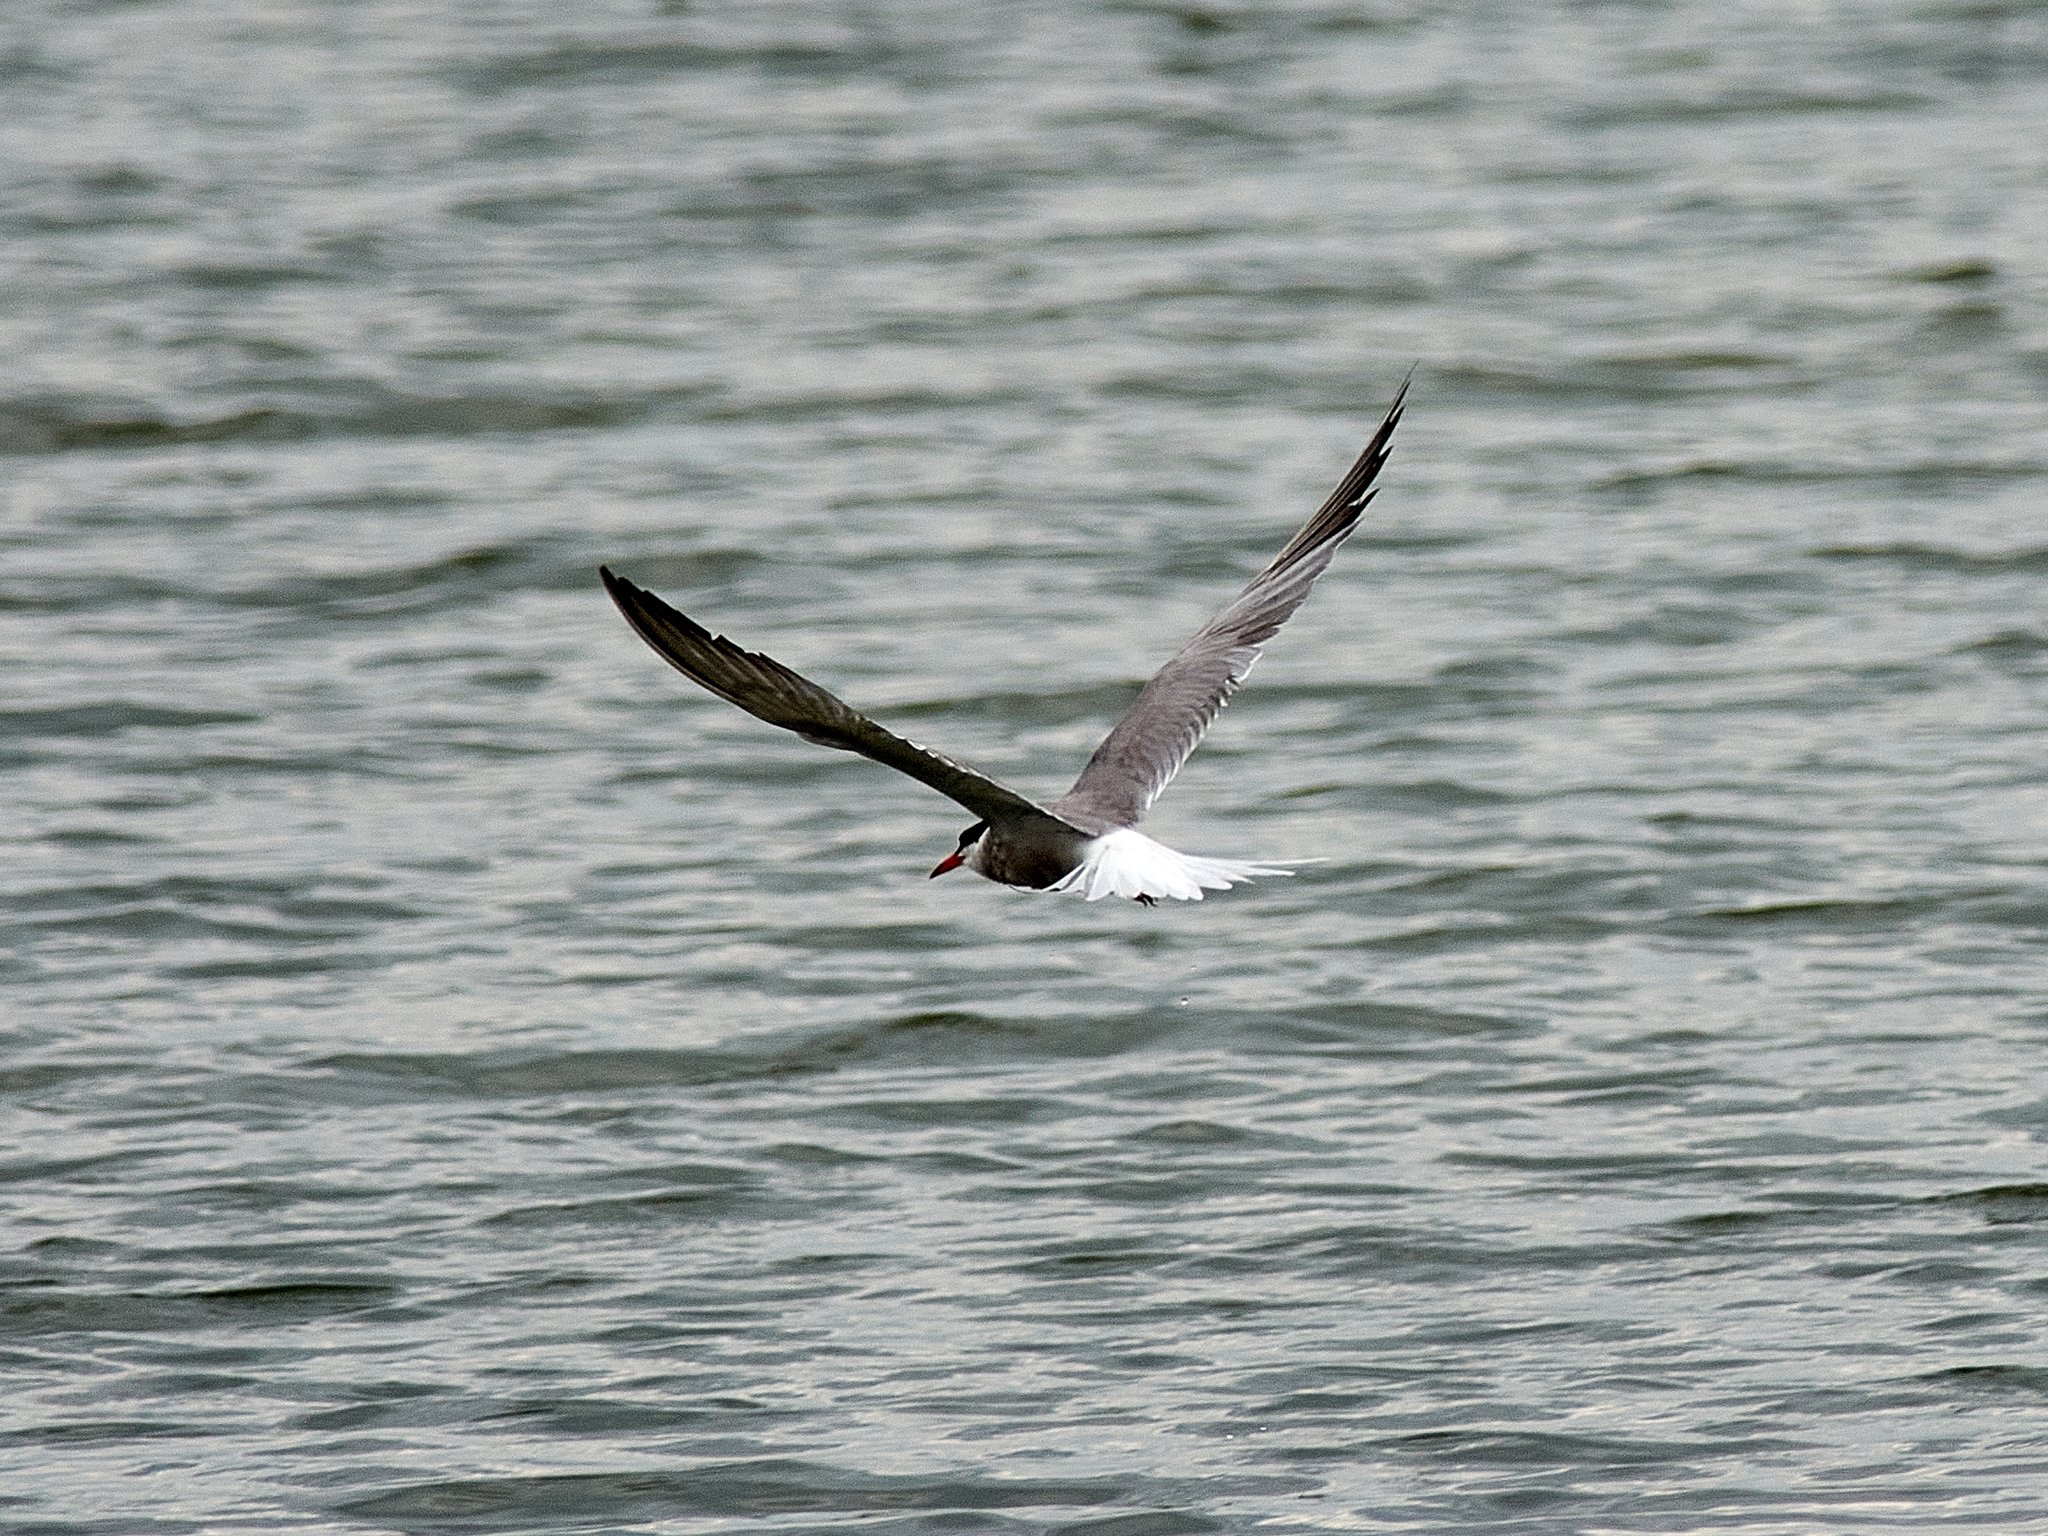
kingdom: Animalia
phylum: Chordata
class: Aves
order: Charadriiformes
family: Laridae
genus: Sterna
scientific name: Sterna hirundo
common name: Common tern
